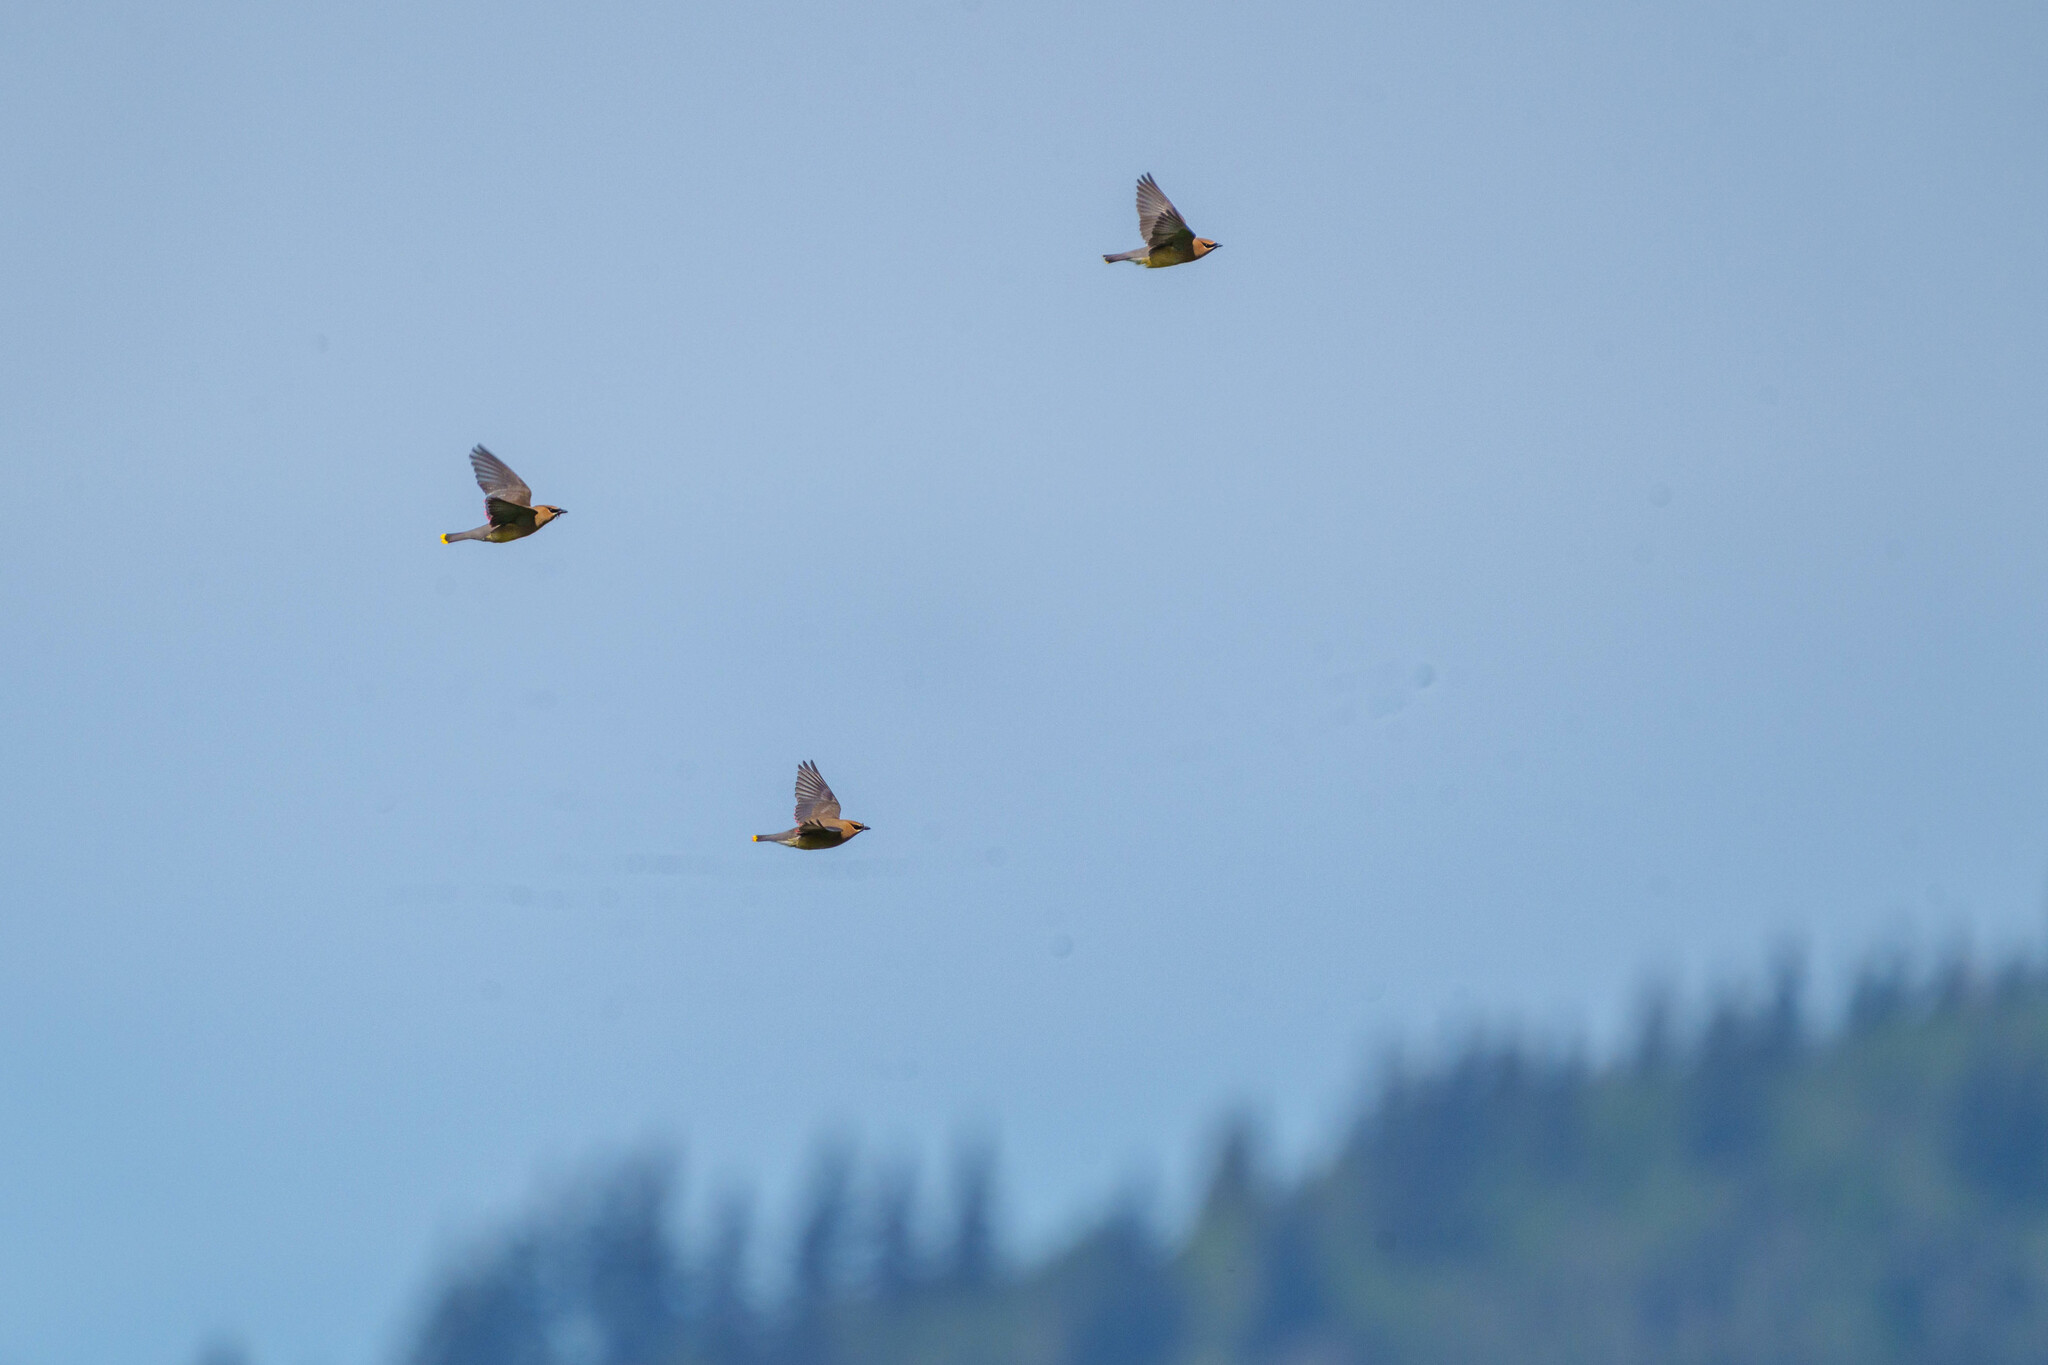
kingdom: Animalia
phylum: Chordata
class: Aves
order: Passeriformes
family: Bombycillidae
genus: Bombycilla
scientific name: Bombycilla cedrorum
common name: Cedar waxwing
